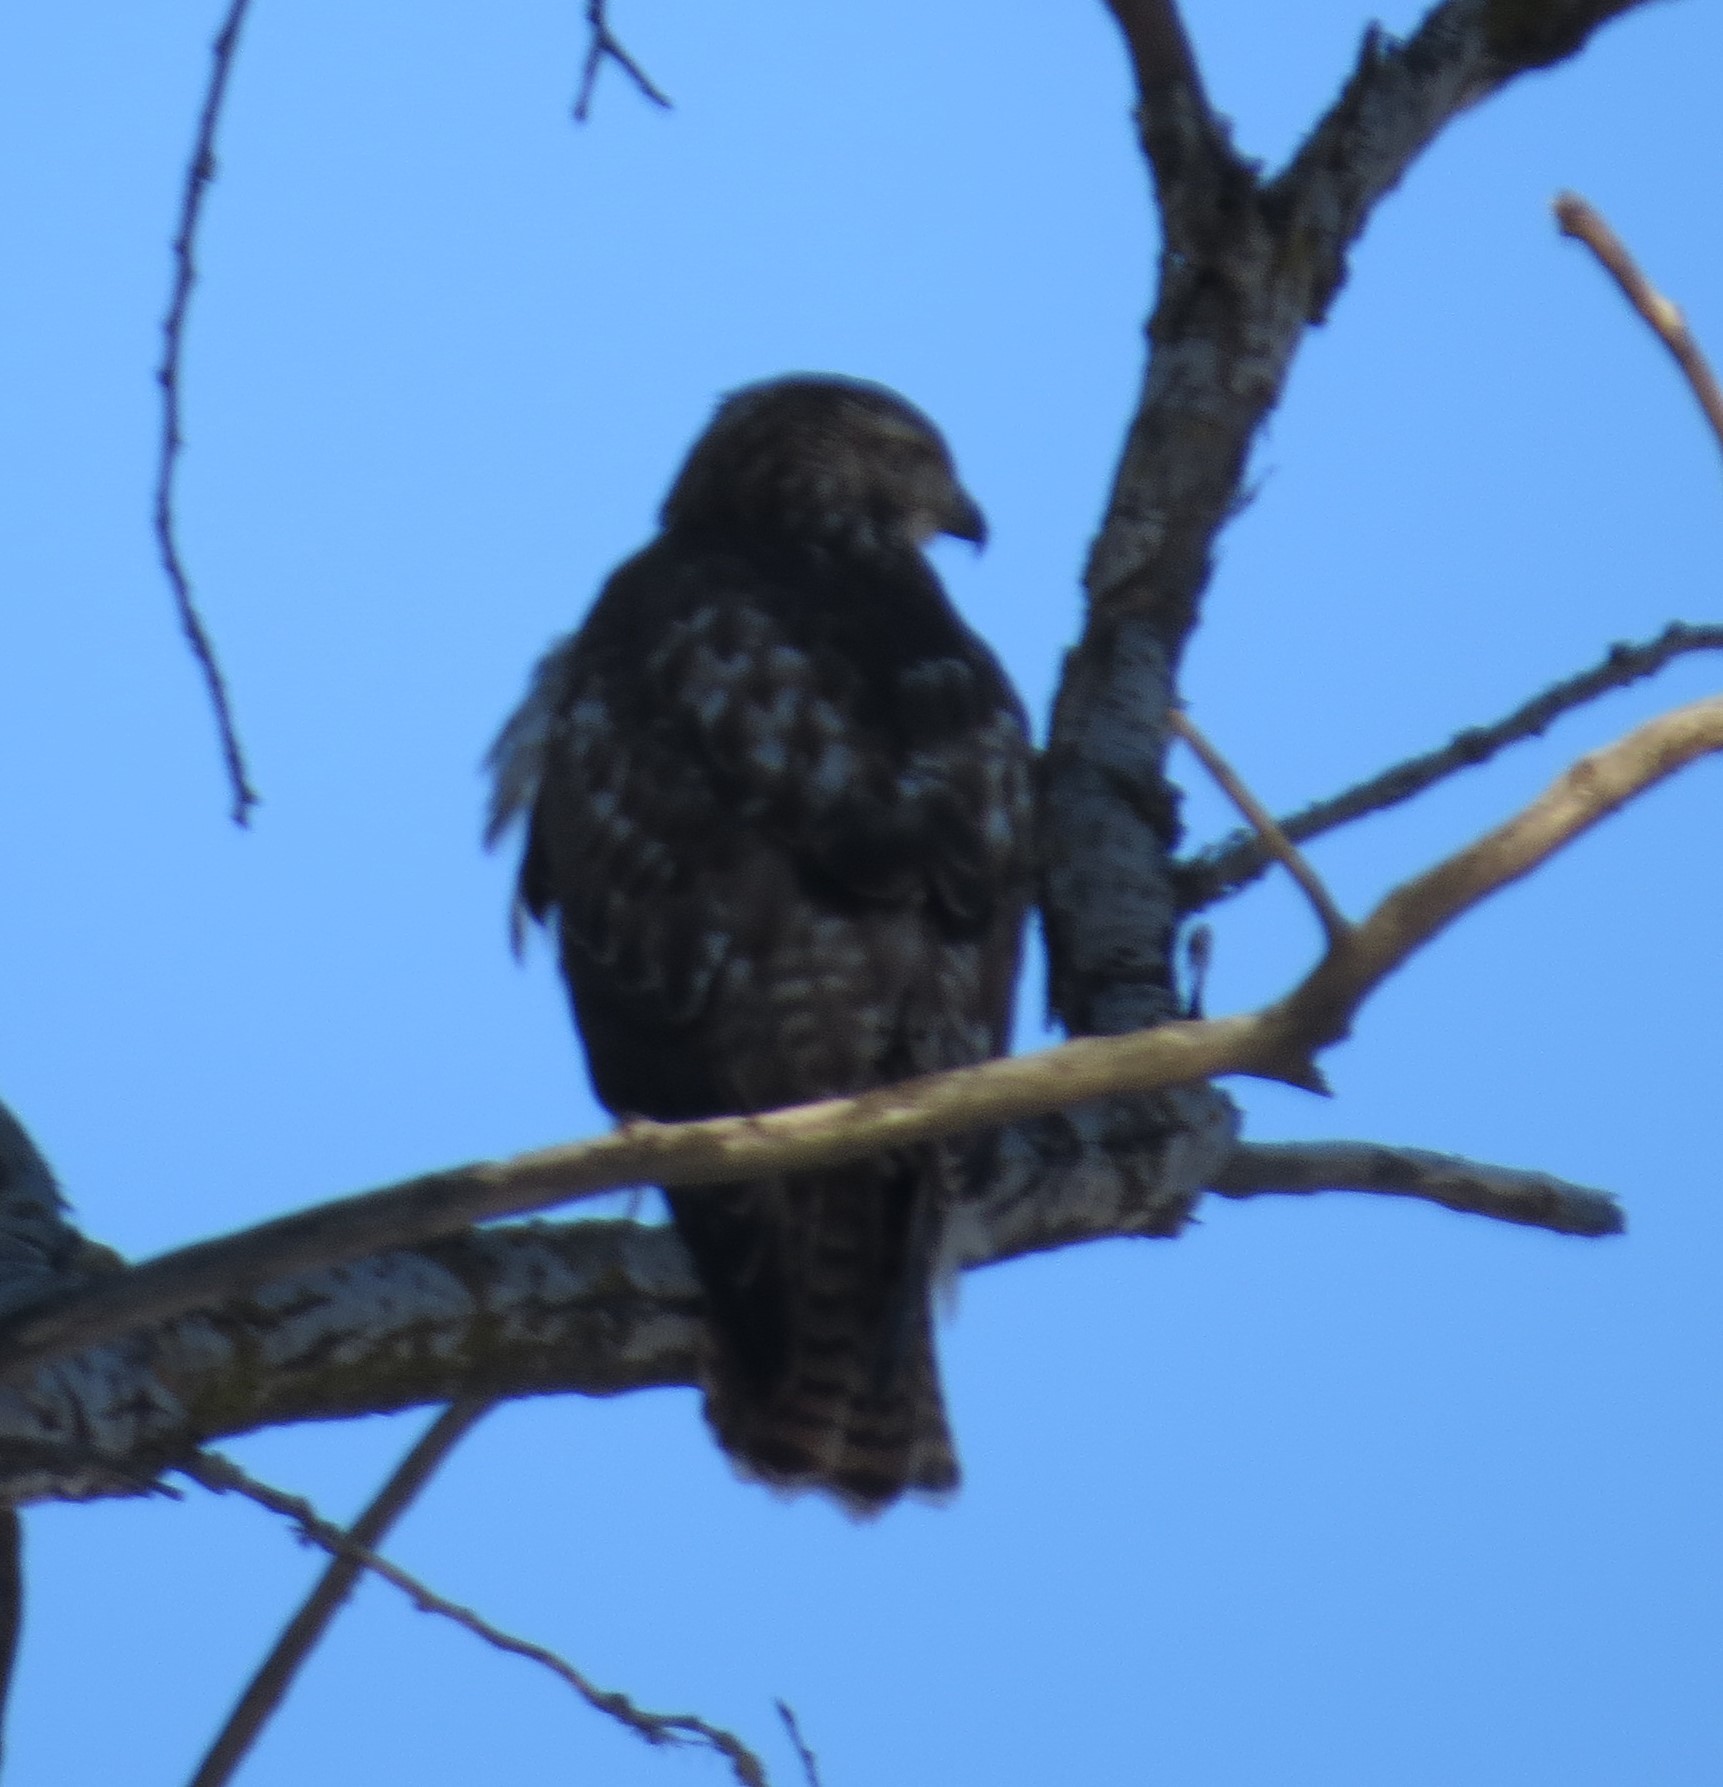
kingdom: Animalia
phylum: Chordata
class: Aves
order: Accipitriformes
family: Accipitridae
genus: Buteo
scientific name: Buteo jamaicensis
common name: Red-tailed hawk
